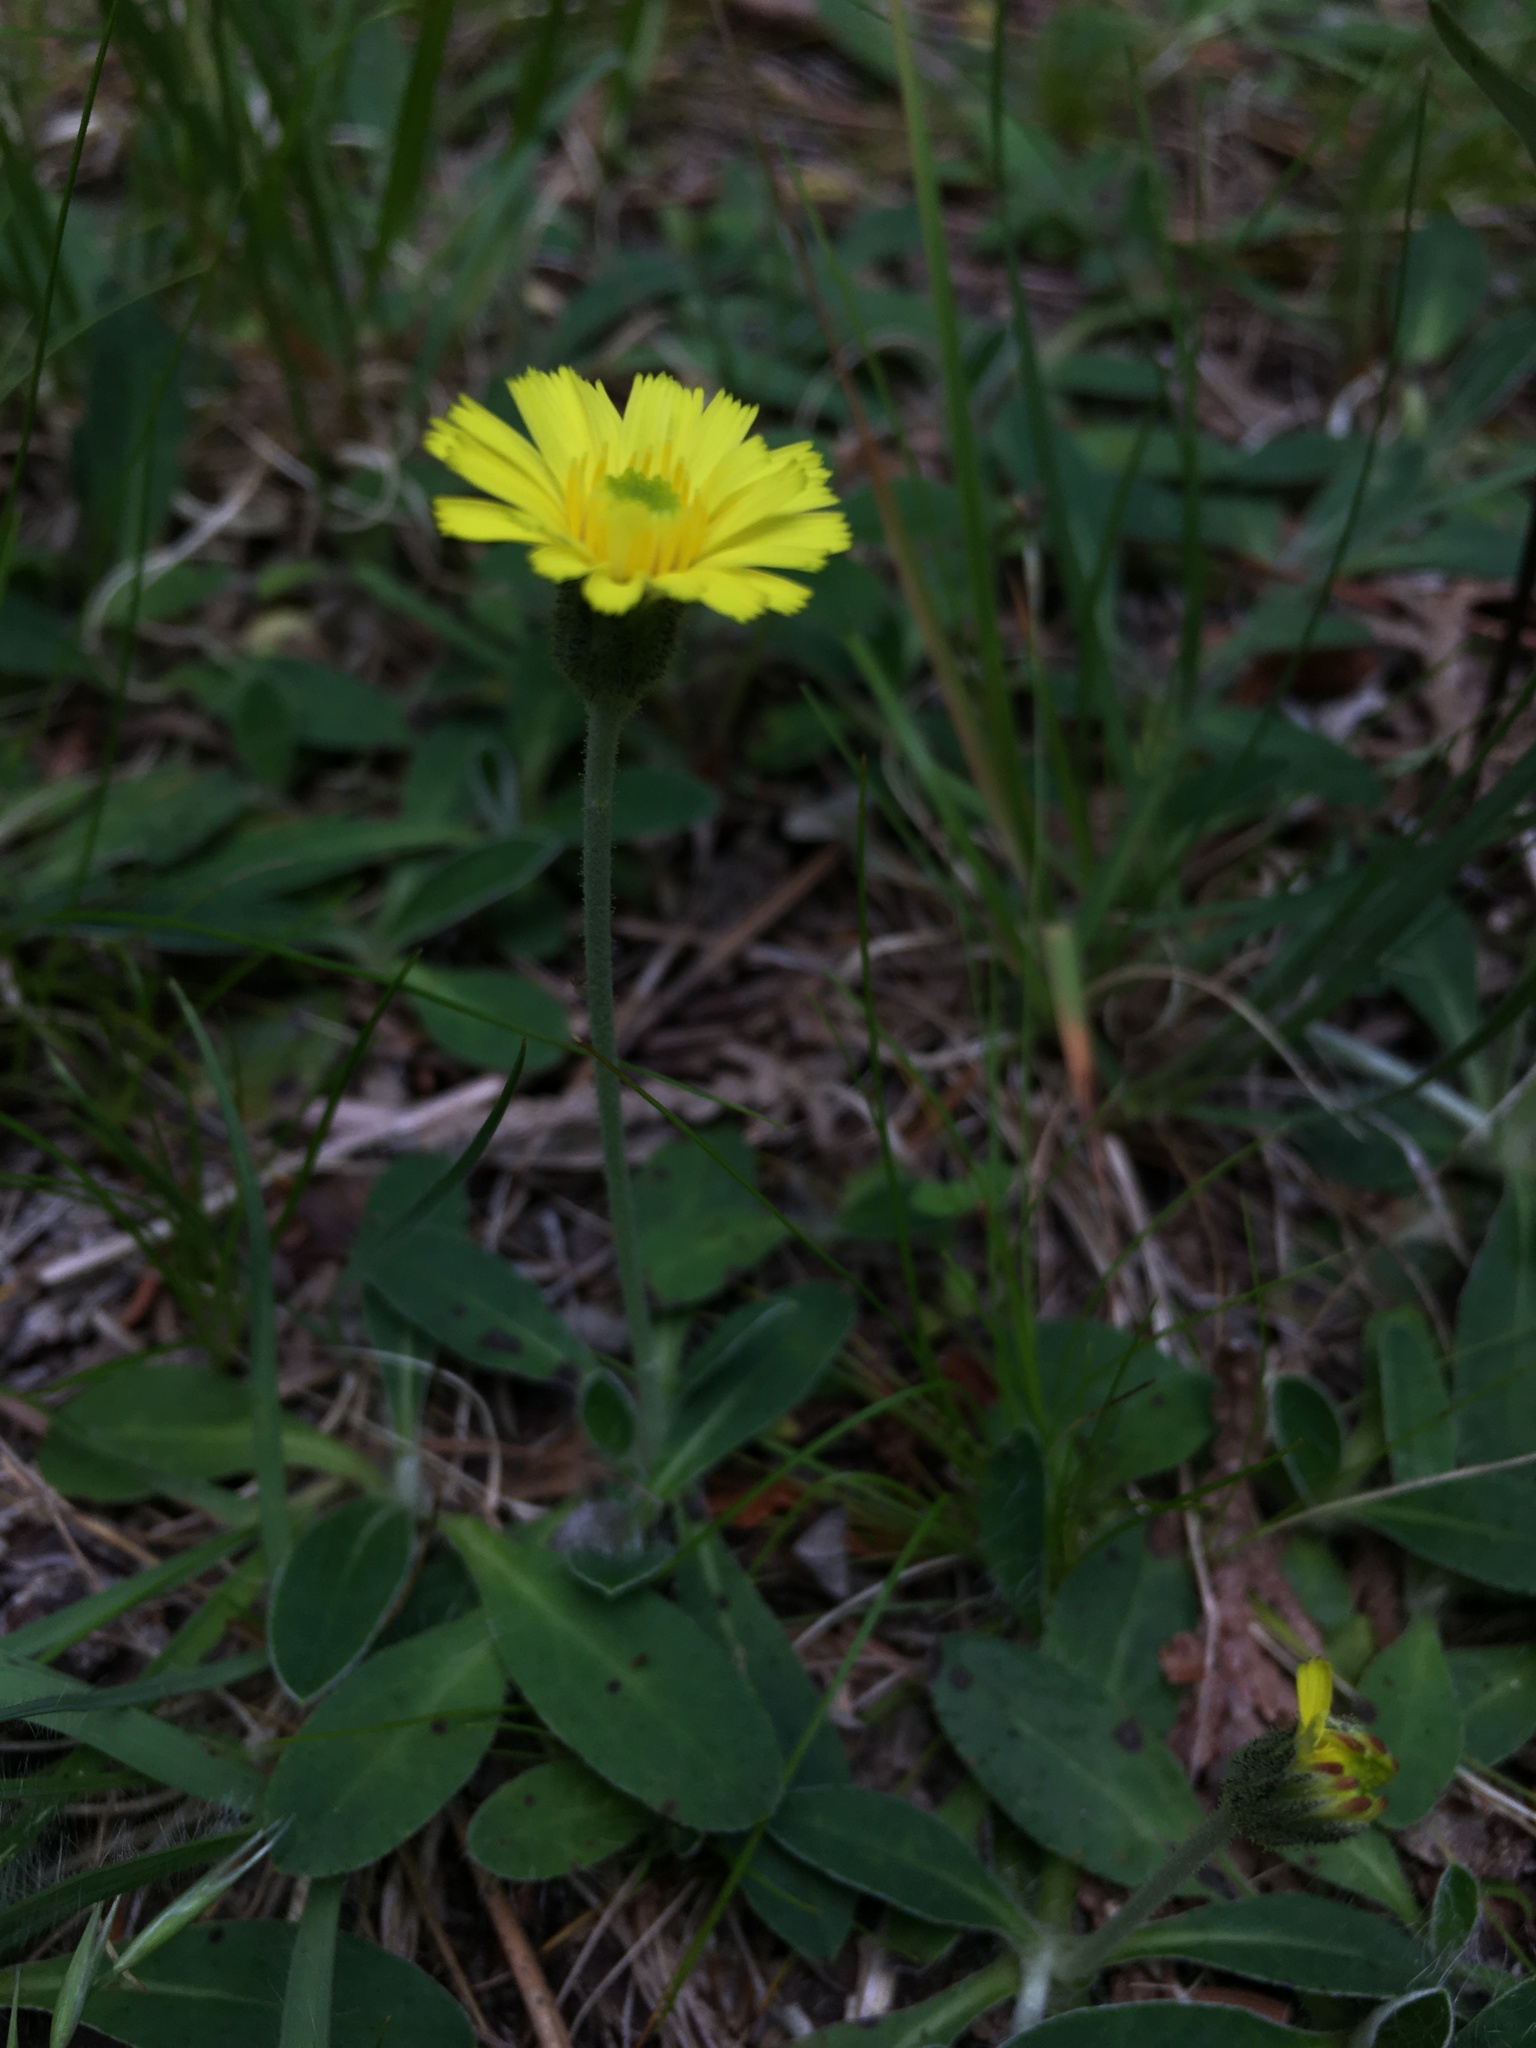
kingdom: Plantae
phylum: Tracheophyta
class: Magnoliopsida
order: Asterales
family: Asteraceae
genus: Pilosella
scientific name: Pilosella officinarum
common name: Mouse-ear hawkweed
